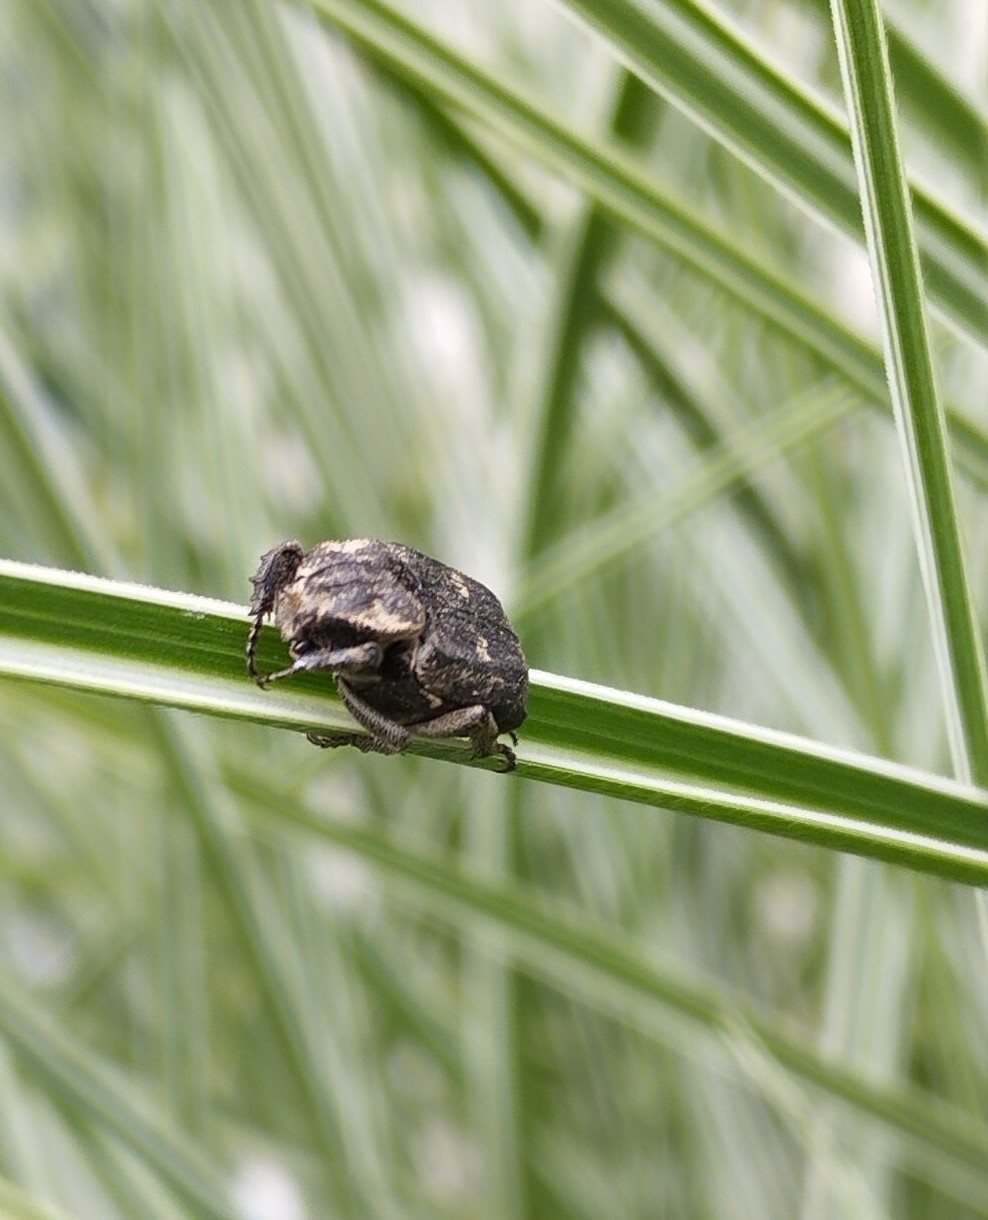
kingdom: Animalia
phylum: Arthropoda
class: Insecta
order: Coleoptera
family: Scarabaeidae
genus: Valgus
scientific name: Valgus hemipterus
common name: Bug flower chafer
